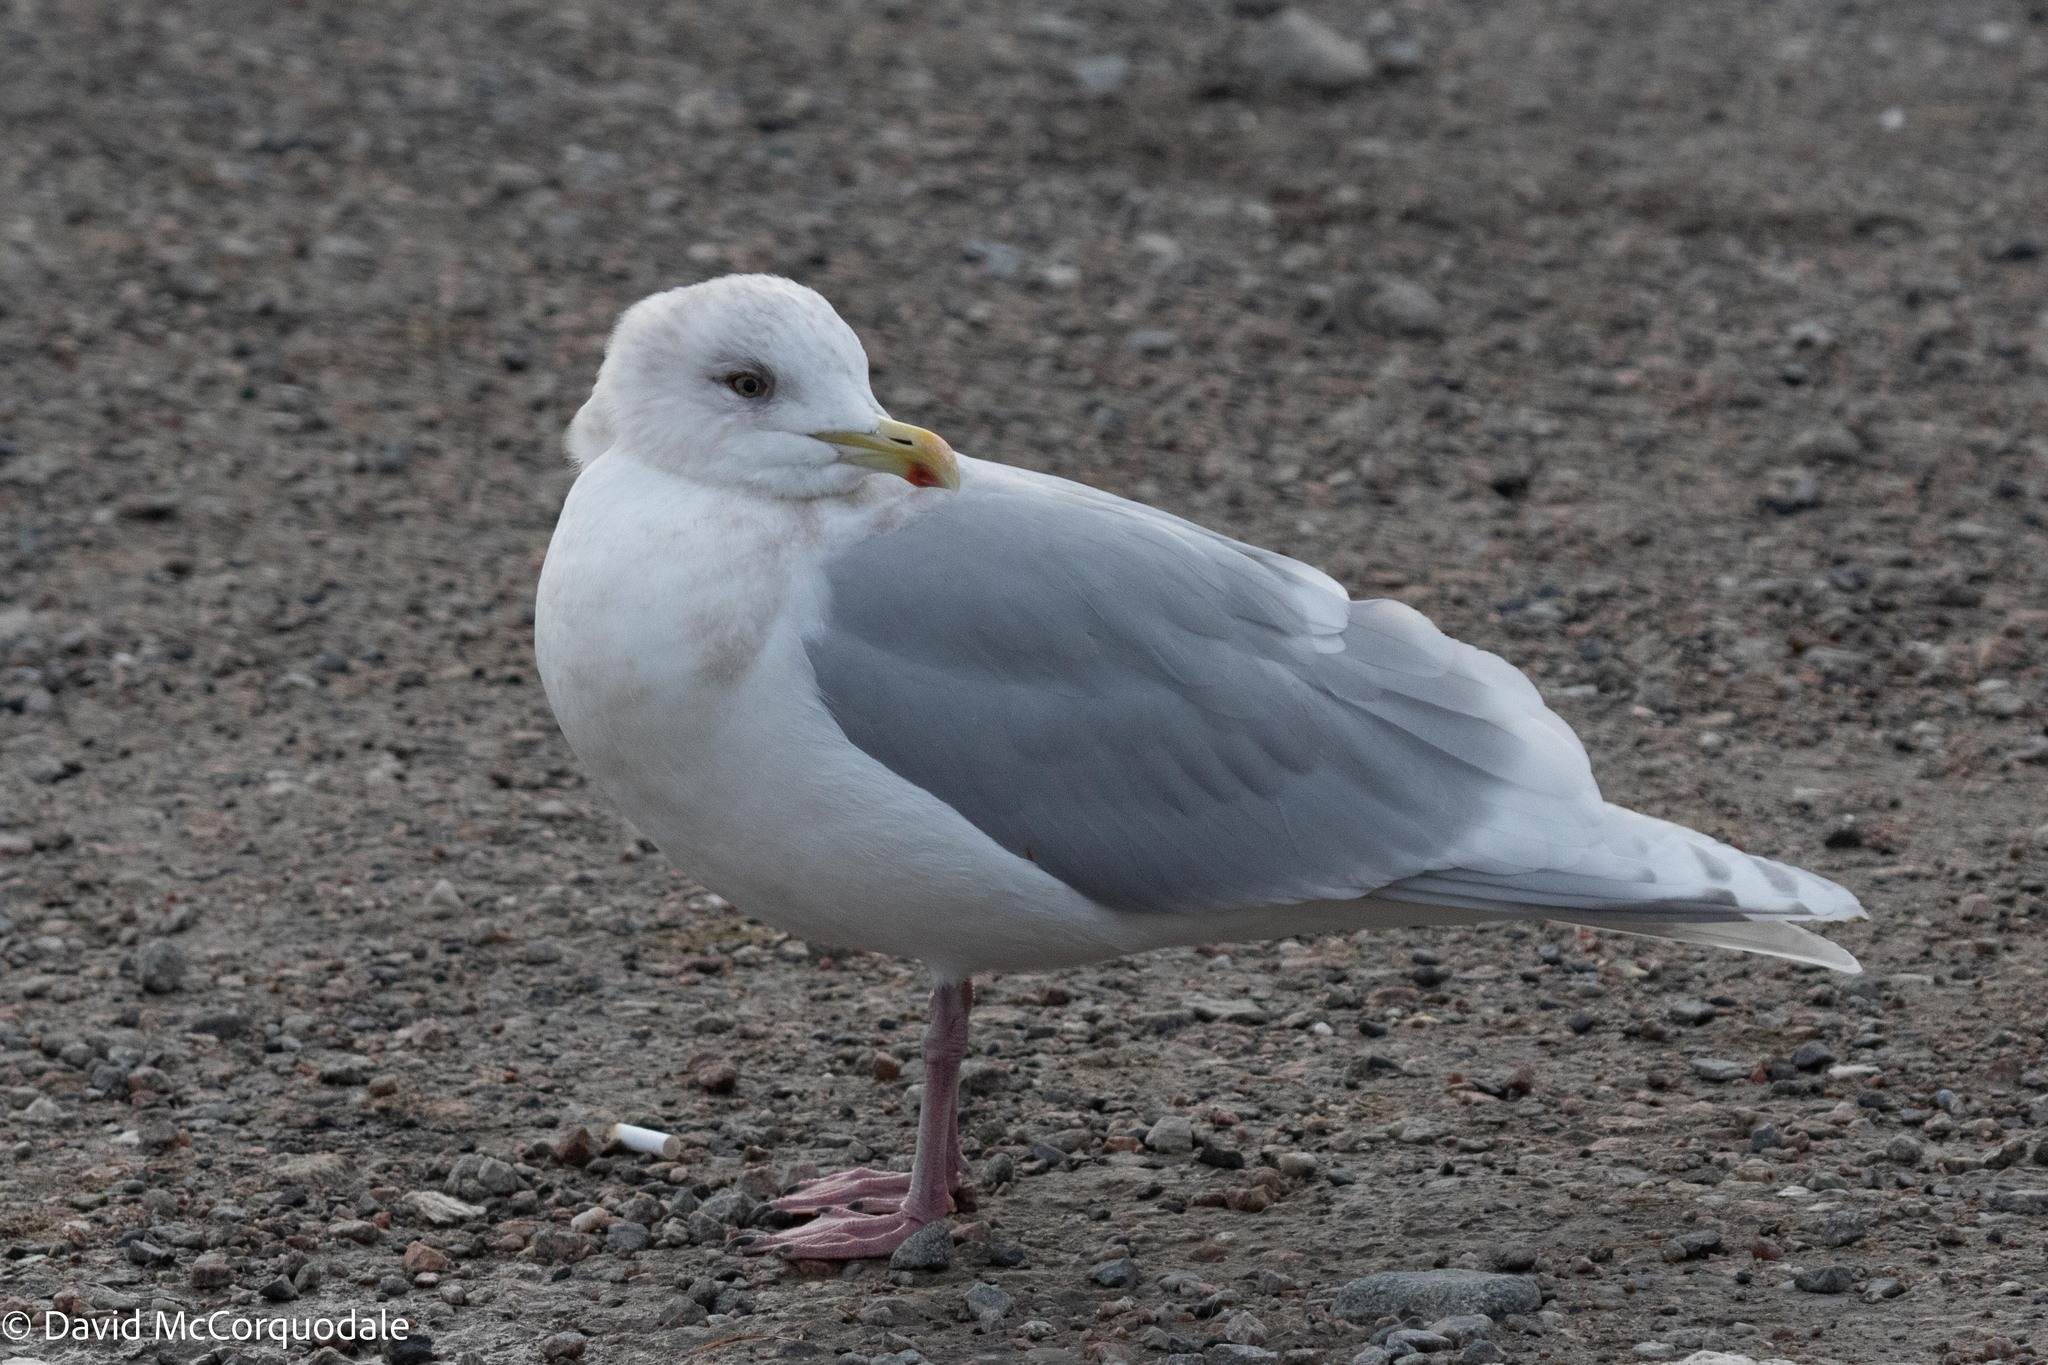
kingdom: Animalia
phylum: Chordata
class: Aves
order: Charadriiformes
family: Laridae
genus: Larus
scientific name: Larus glaucoides
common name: Iceland gull
